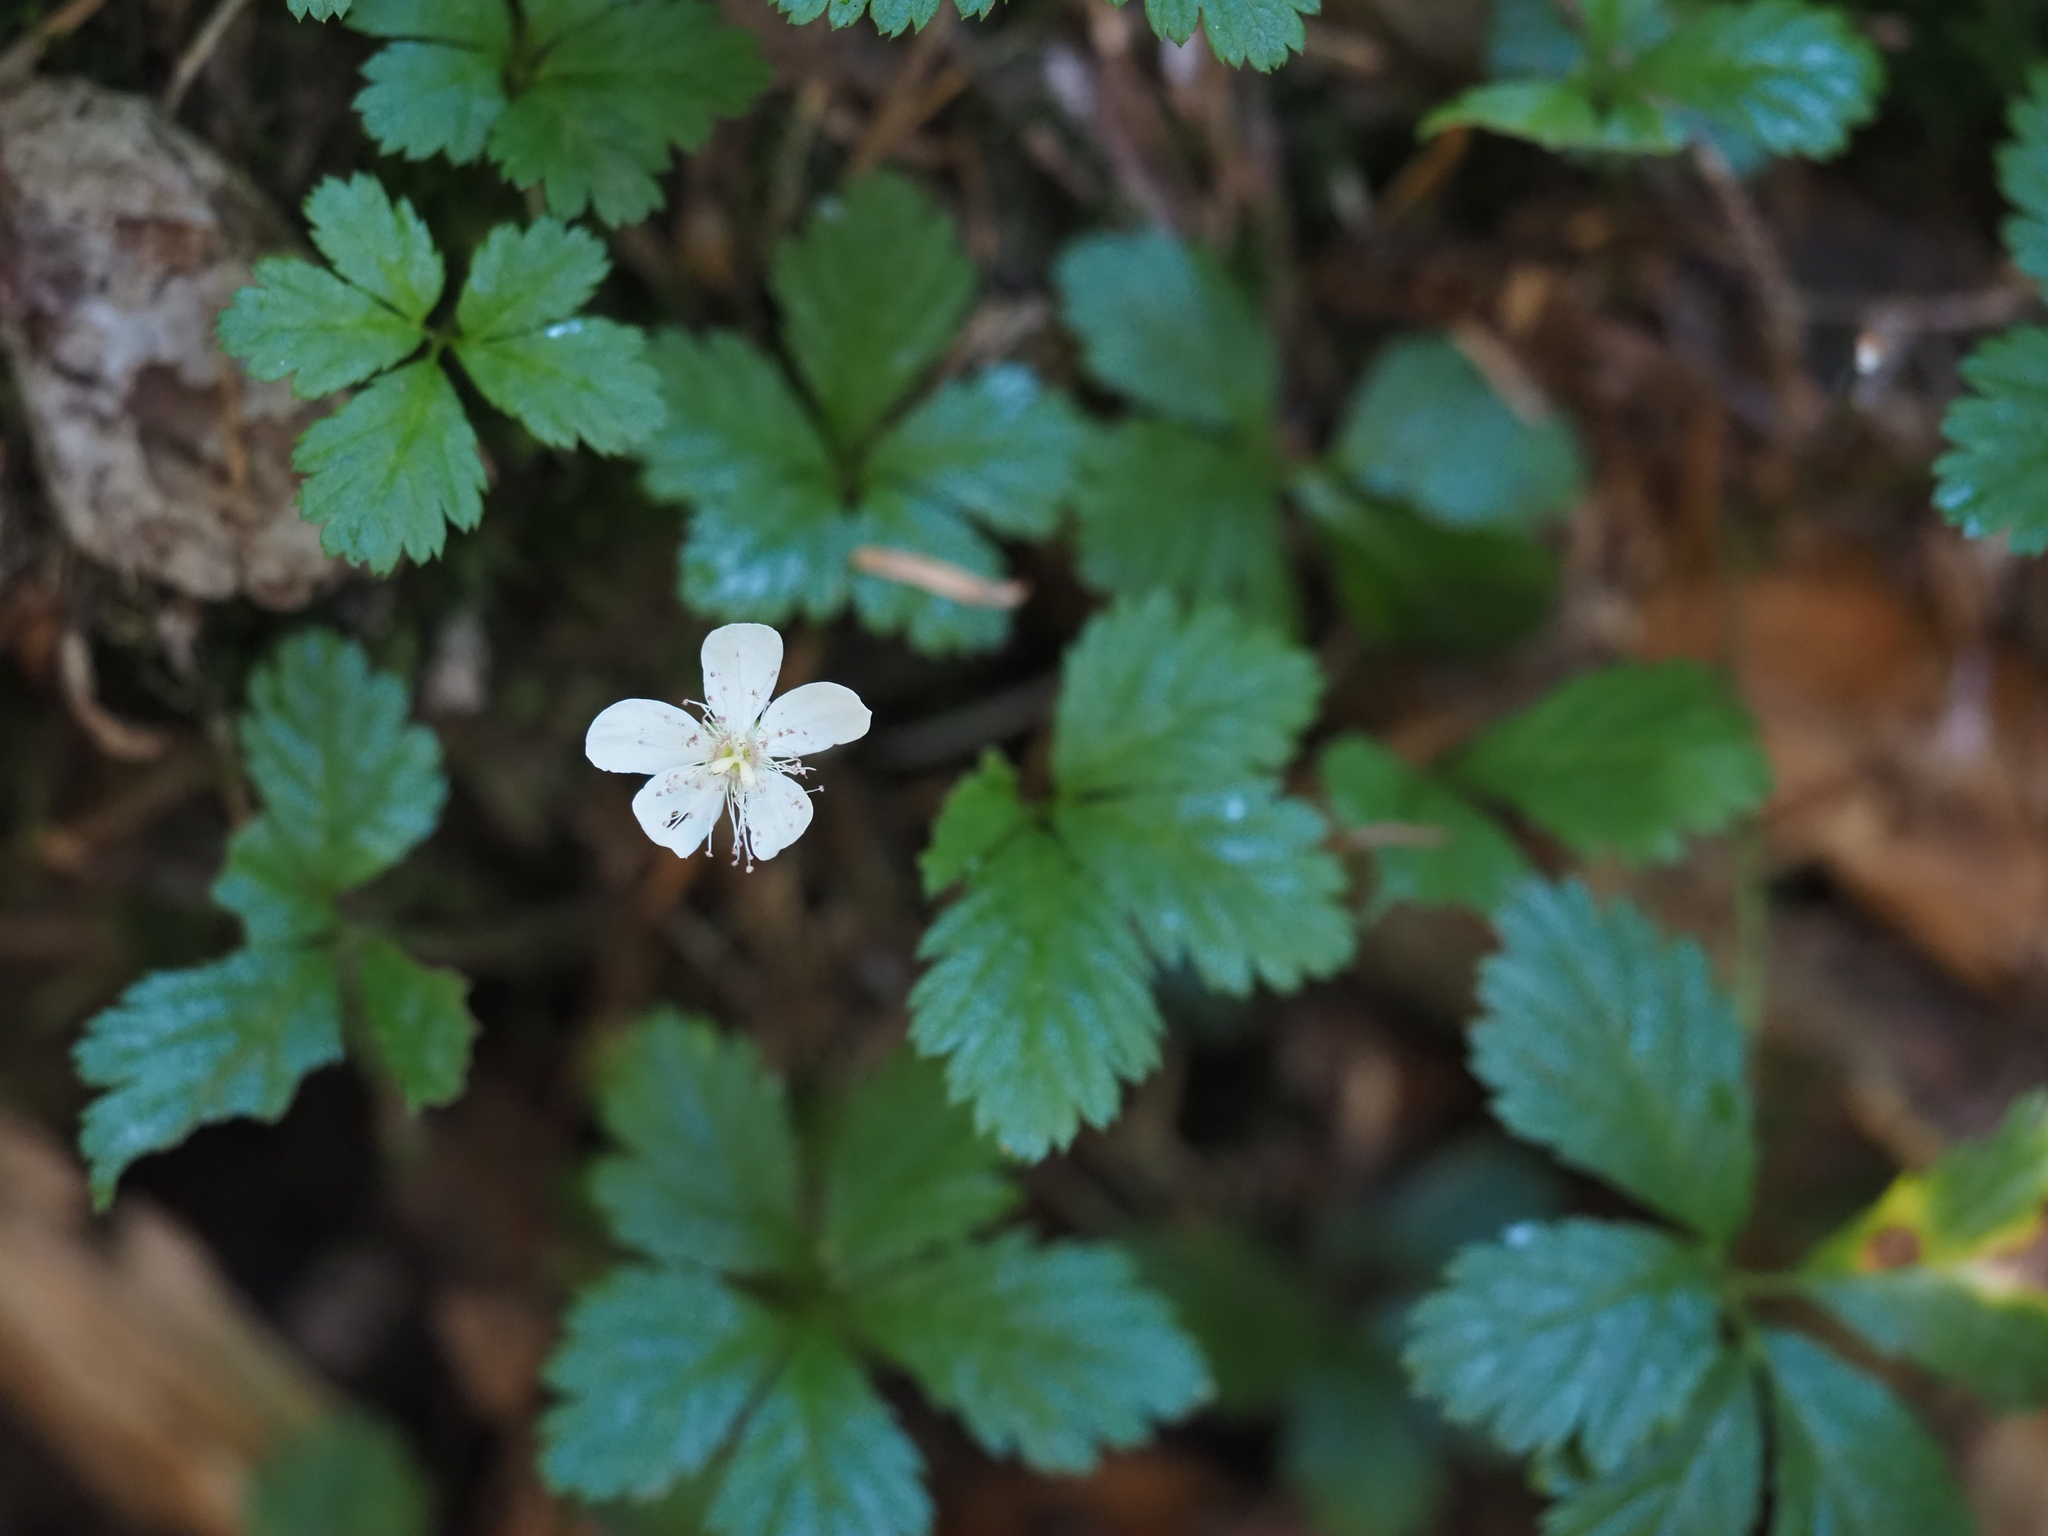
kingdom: Plantae
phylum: Tracheophyta
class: Magnoliopsida
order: Rosales
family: Rosaceae
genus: Rubus
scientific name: Rubus pedatus
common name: Creeping raspberry
